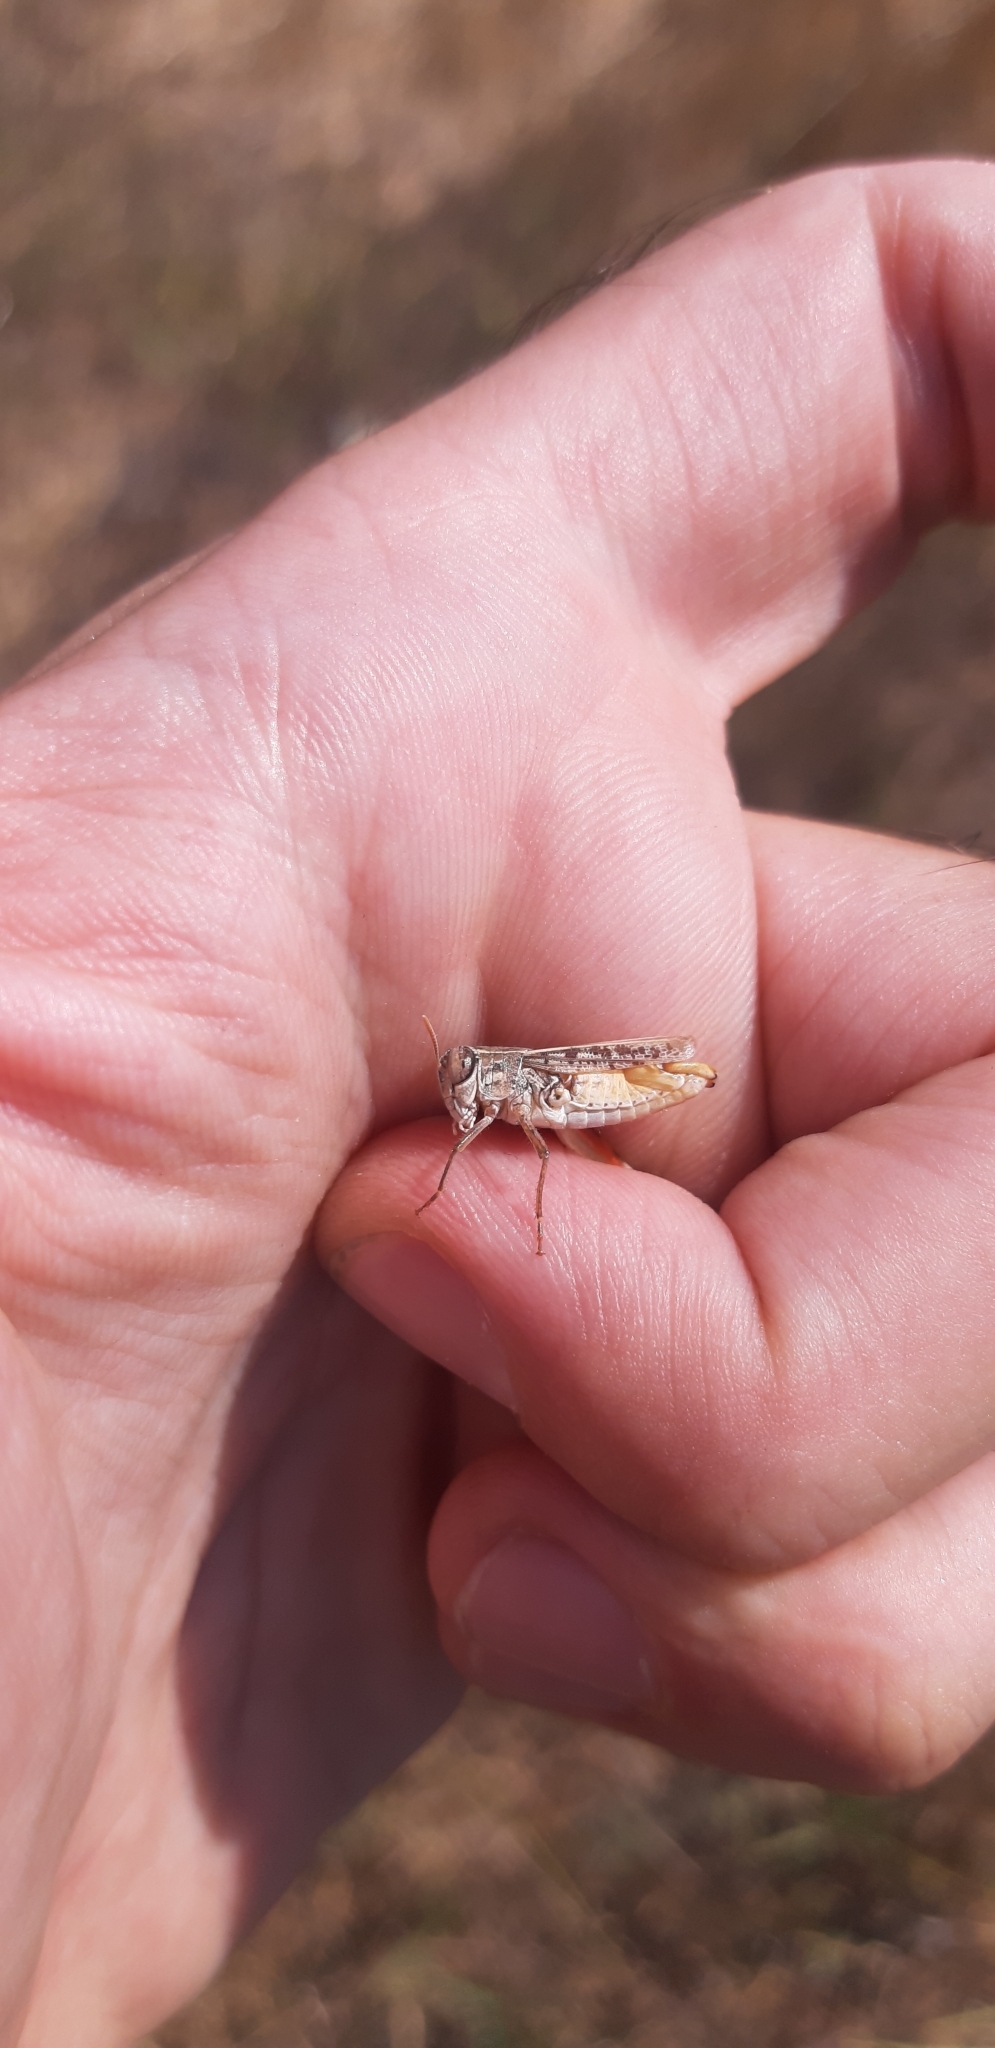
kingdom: Animalia
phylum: Arthropoda
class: Insecta
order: Orthoptera
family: Acrididae
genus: Calliptamus
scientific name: Calliptamus siciliae
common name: Pygmy pincer grasshopper
